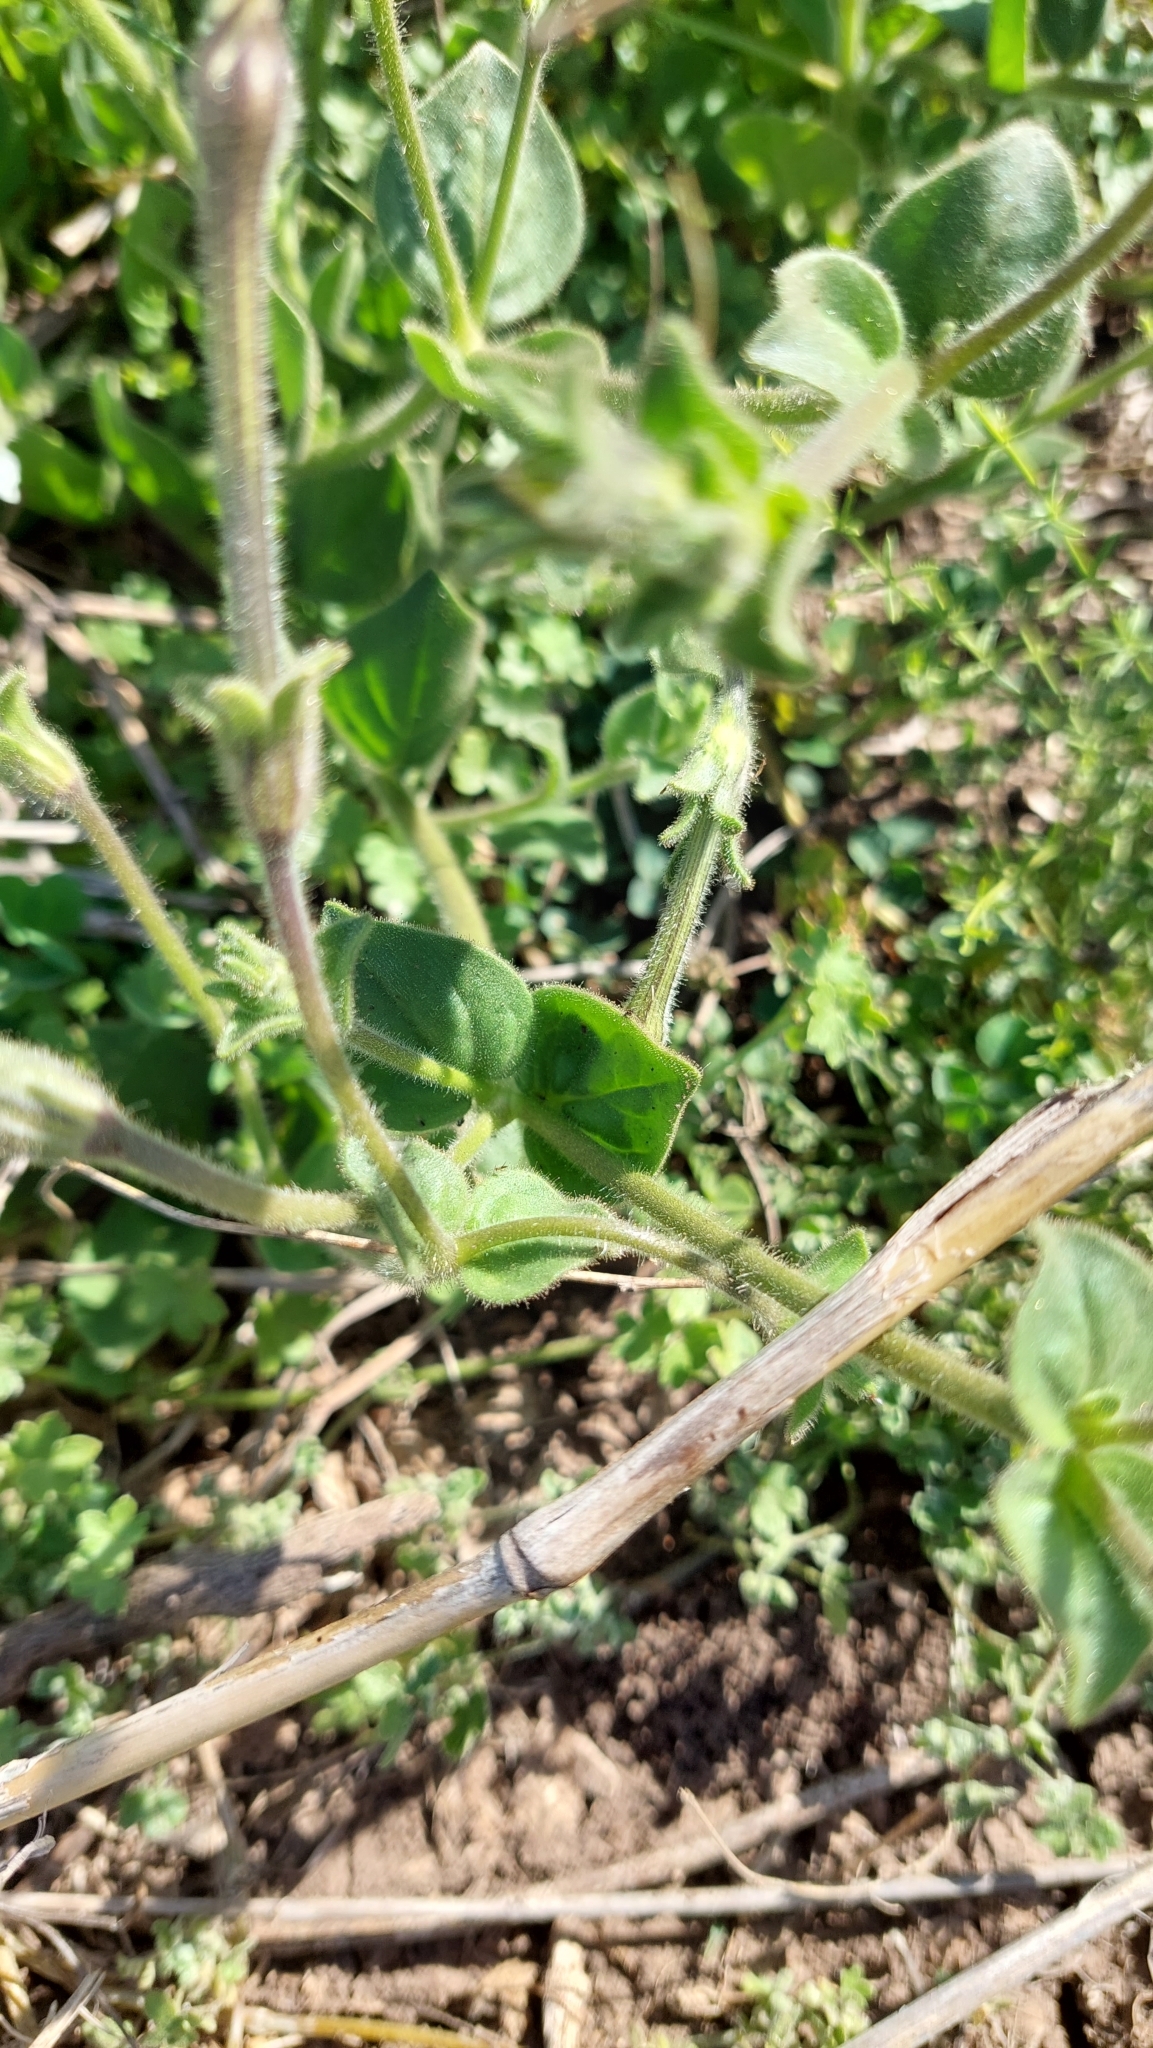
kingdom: Plantae
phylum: Tracheophyta
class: Magnoliopsida
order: Solanales
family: Solanaceae
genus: Petunia
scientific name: Petunia axillaris
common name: Large white petunia
